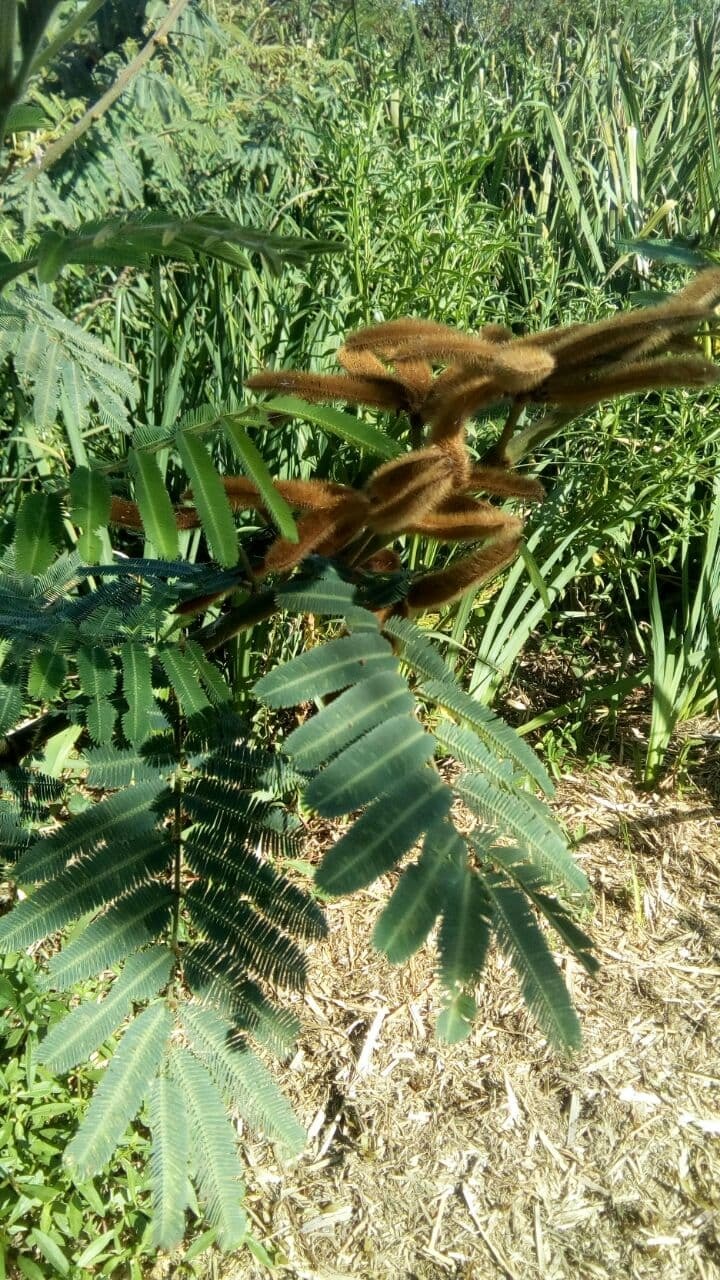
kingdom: Plantae
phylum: Tracheophyta
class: Magnoliopsida
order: Fabales
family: Fabaceae
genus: Mimosa
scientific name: Mimosa pigra
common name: Black mimosa
